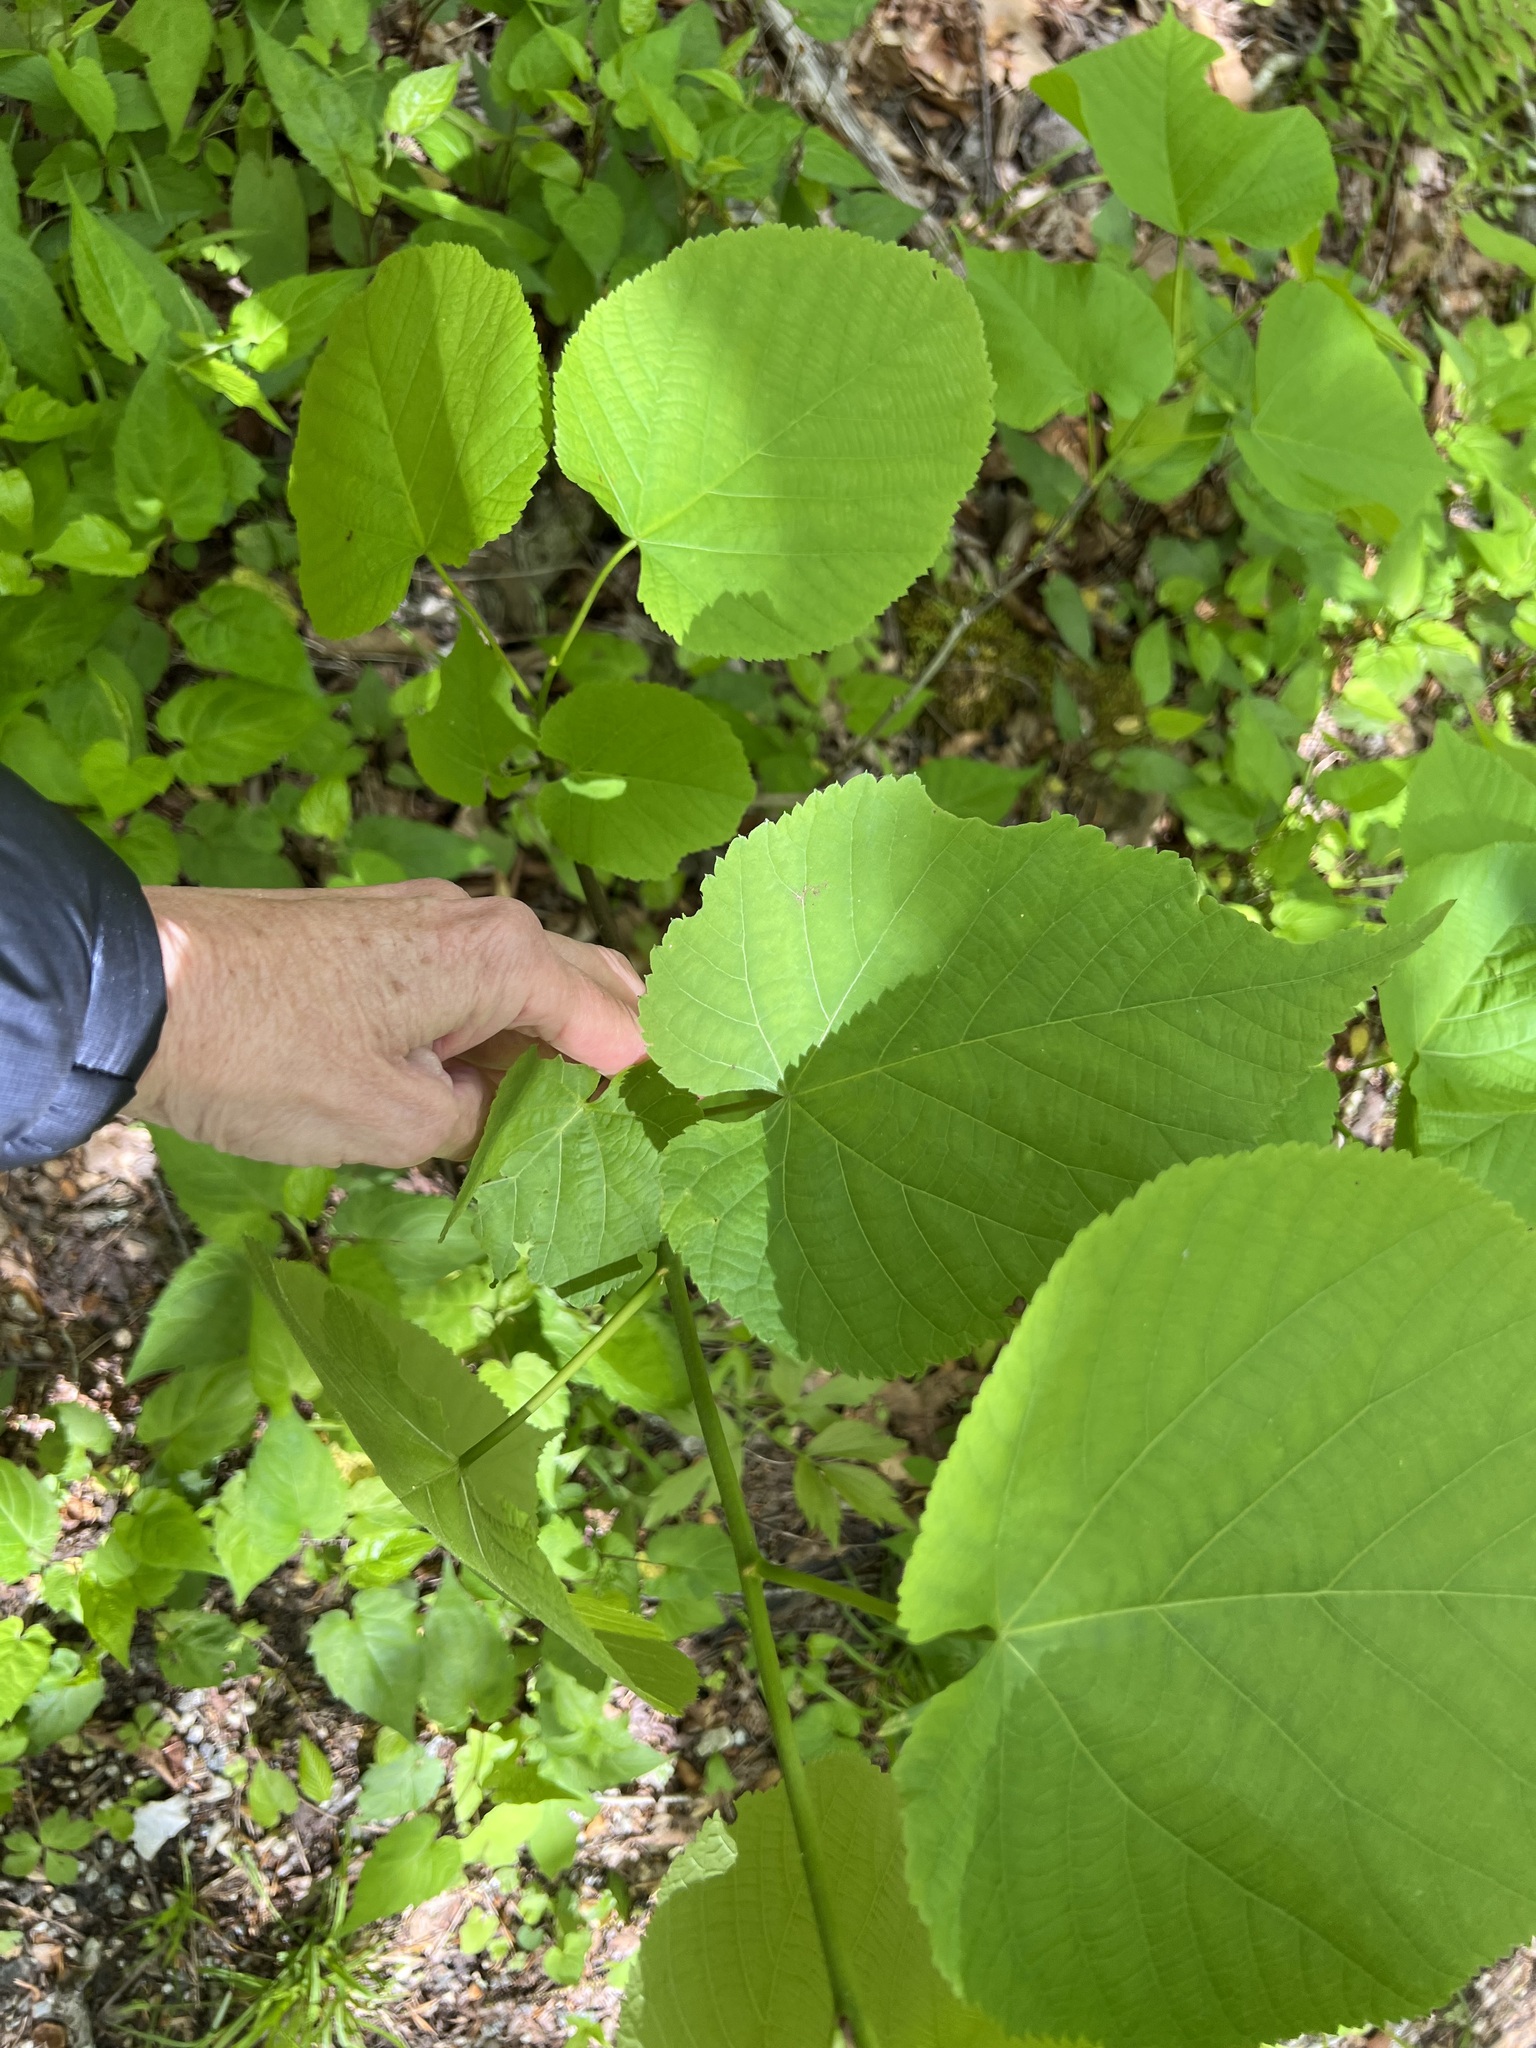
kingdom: Plantae
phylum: Tracheophyta
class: Magnoliopsida
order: Malvales
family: Malvaceae
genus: Tilia
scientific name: Tilia americana
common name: Basswood
